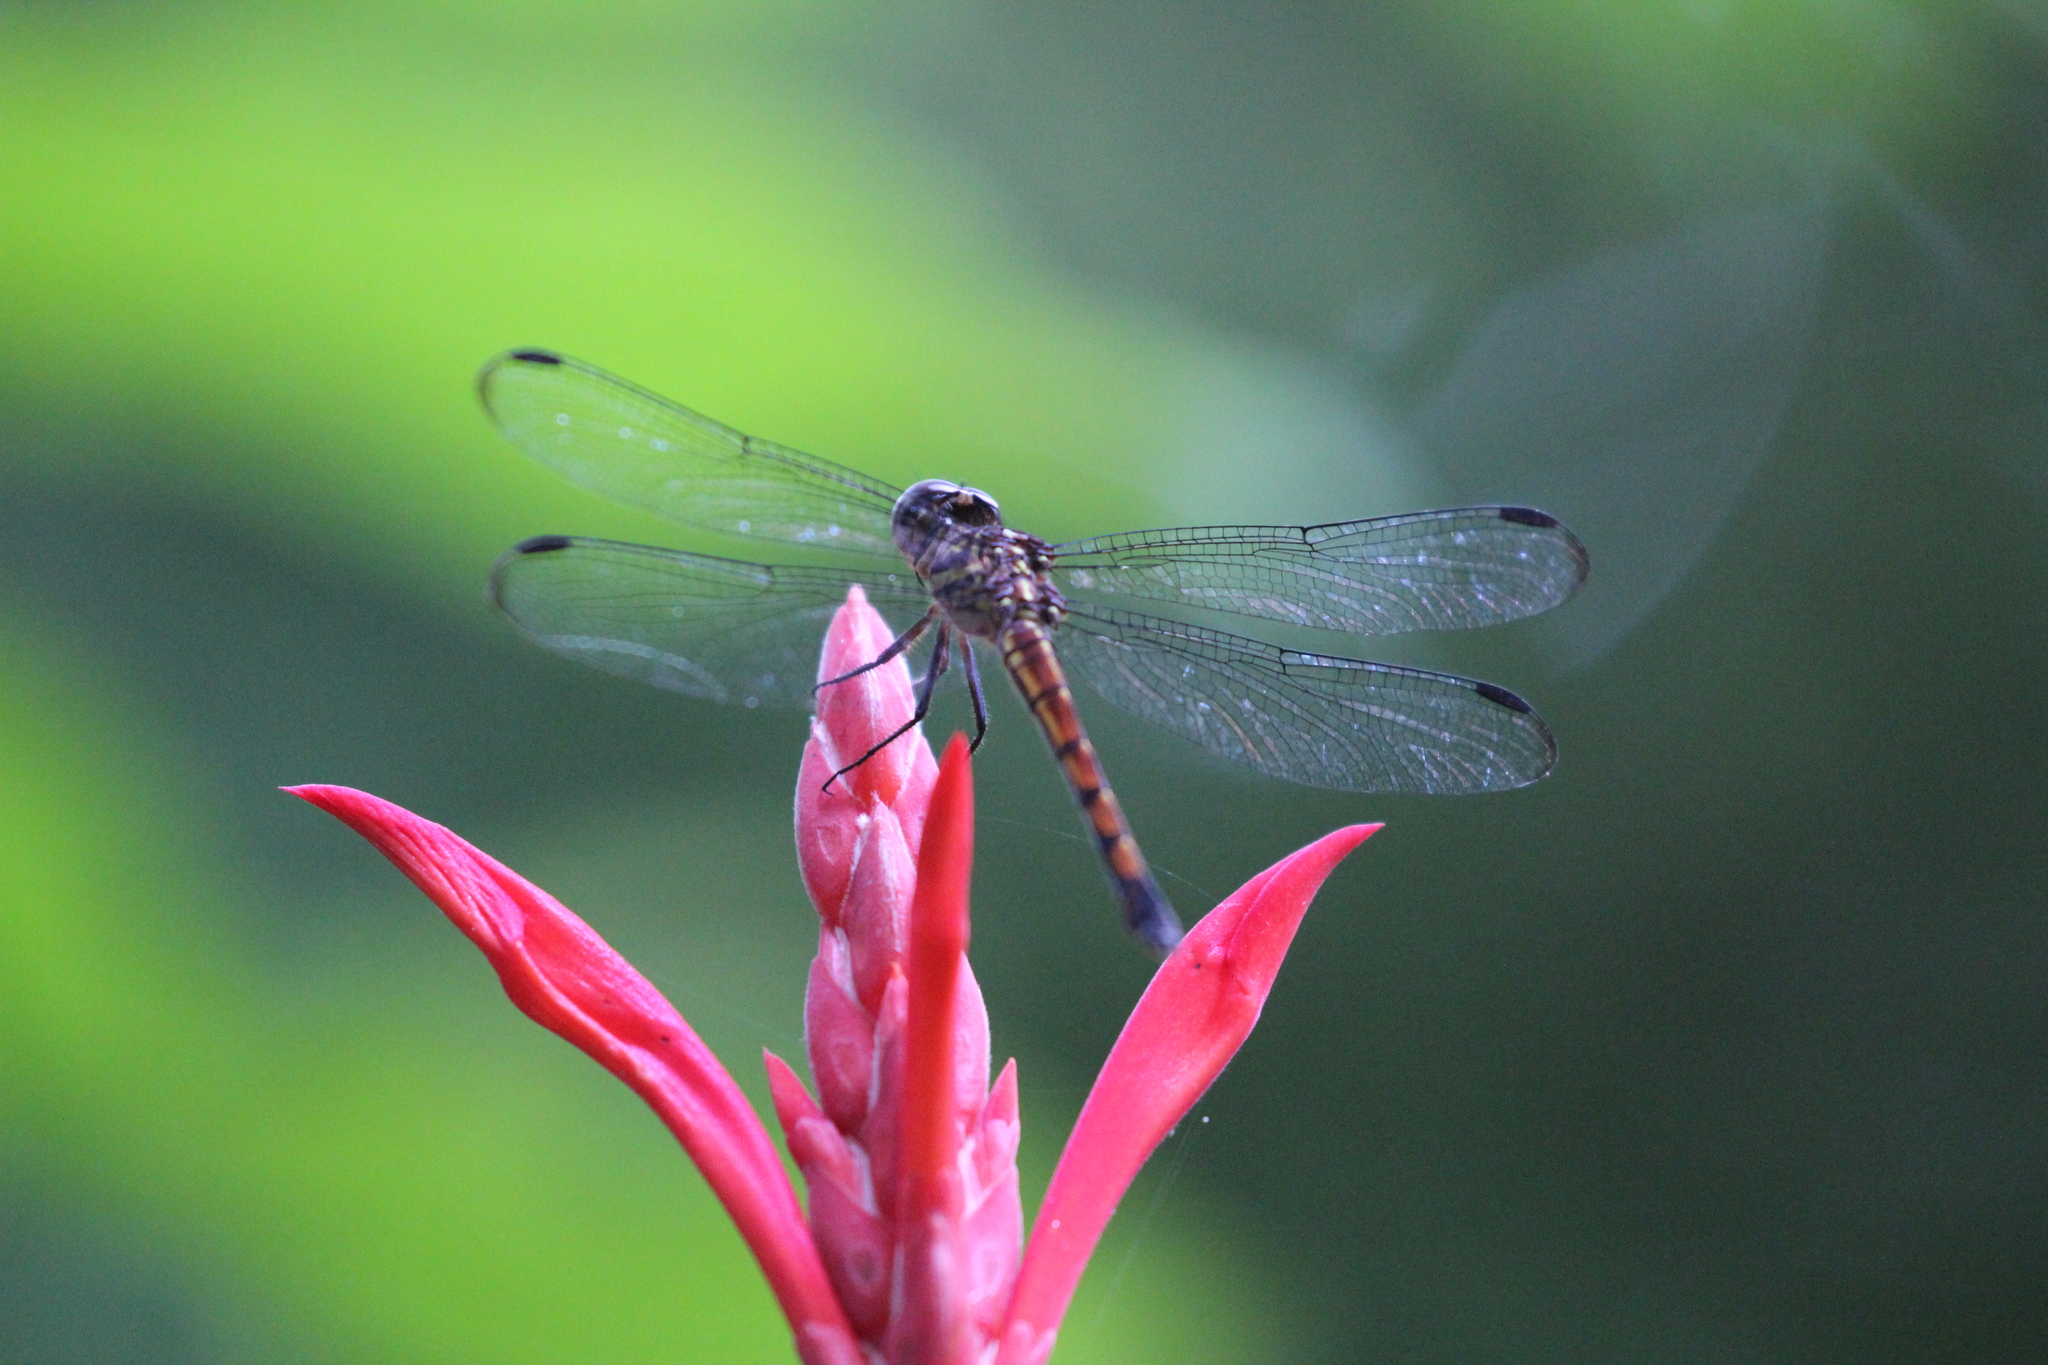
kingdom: Animalia
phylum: Arthropoda
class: Insecta
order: Odonata
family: Libellulidae
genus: Cannaphila
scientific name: Cannaphila insularis
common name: Gray-waisted skimmer
